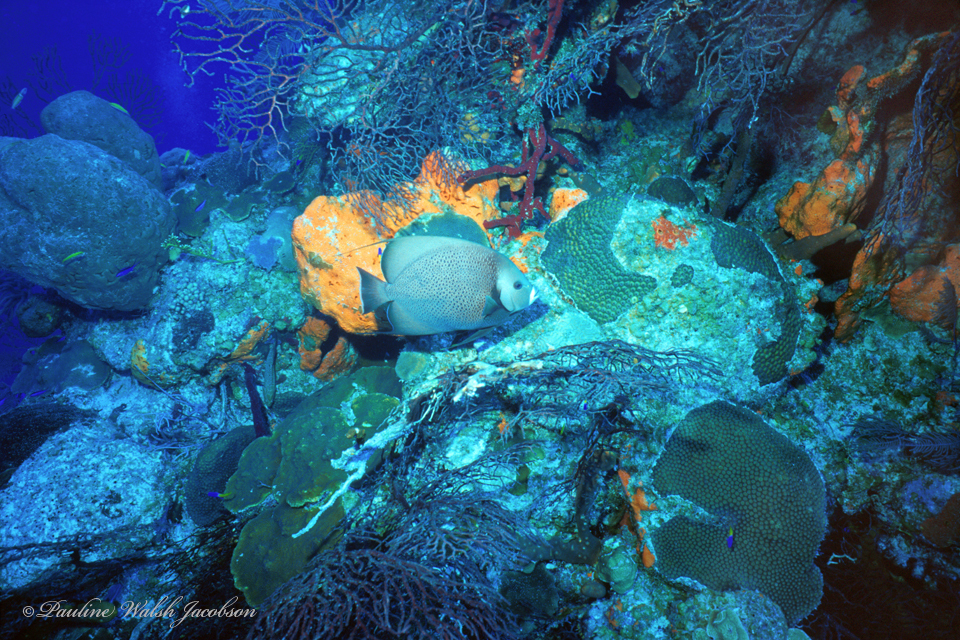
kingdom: Animalia
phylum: Chordata
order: Perciformes
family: Pomacanthidae
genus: Pomacanthus
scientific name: Pomacanthus arcuatus
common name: Gray angelfish
